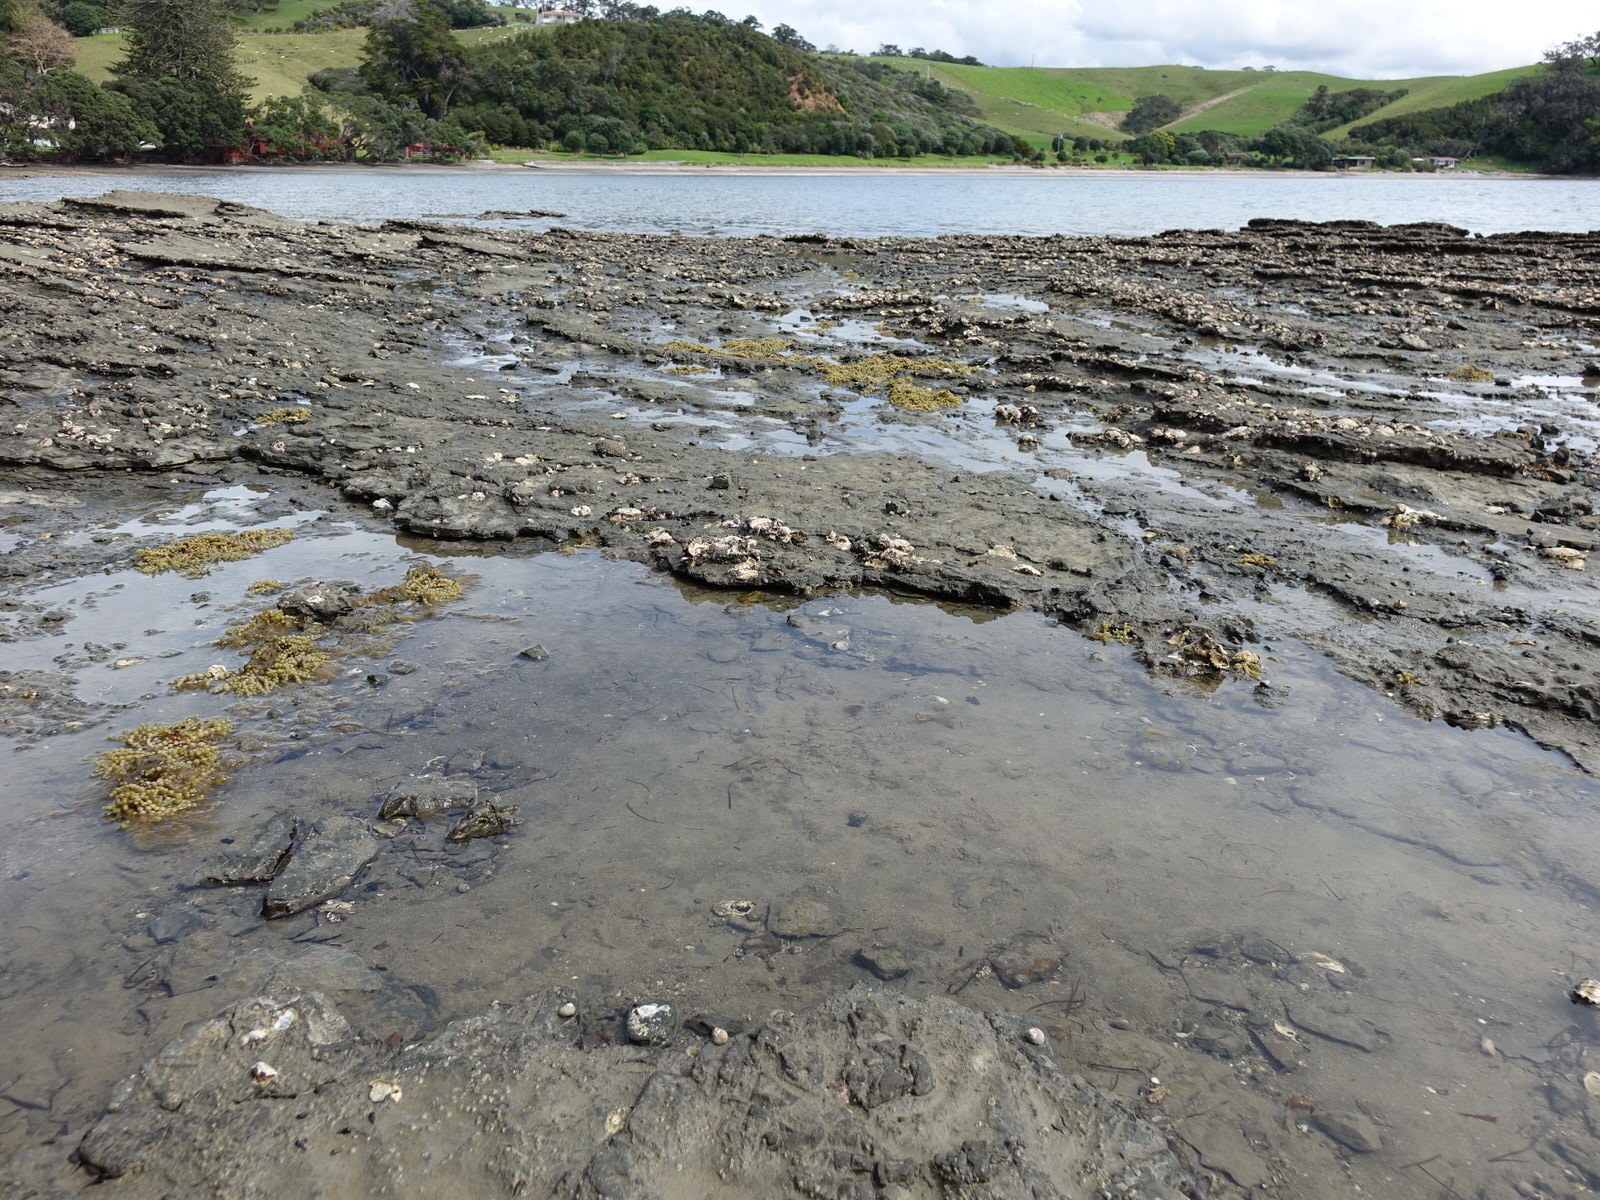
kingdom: Animalia
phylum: Mollusca
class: Gastropoda
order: Cephalaspidea
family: Haminoeidae
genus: Papawera
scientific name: Papawera zelandiae
